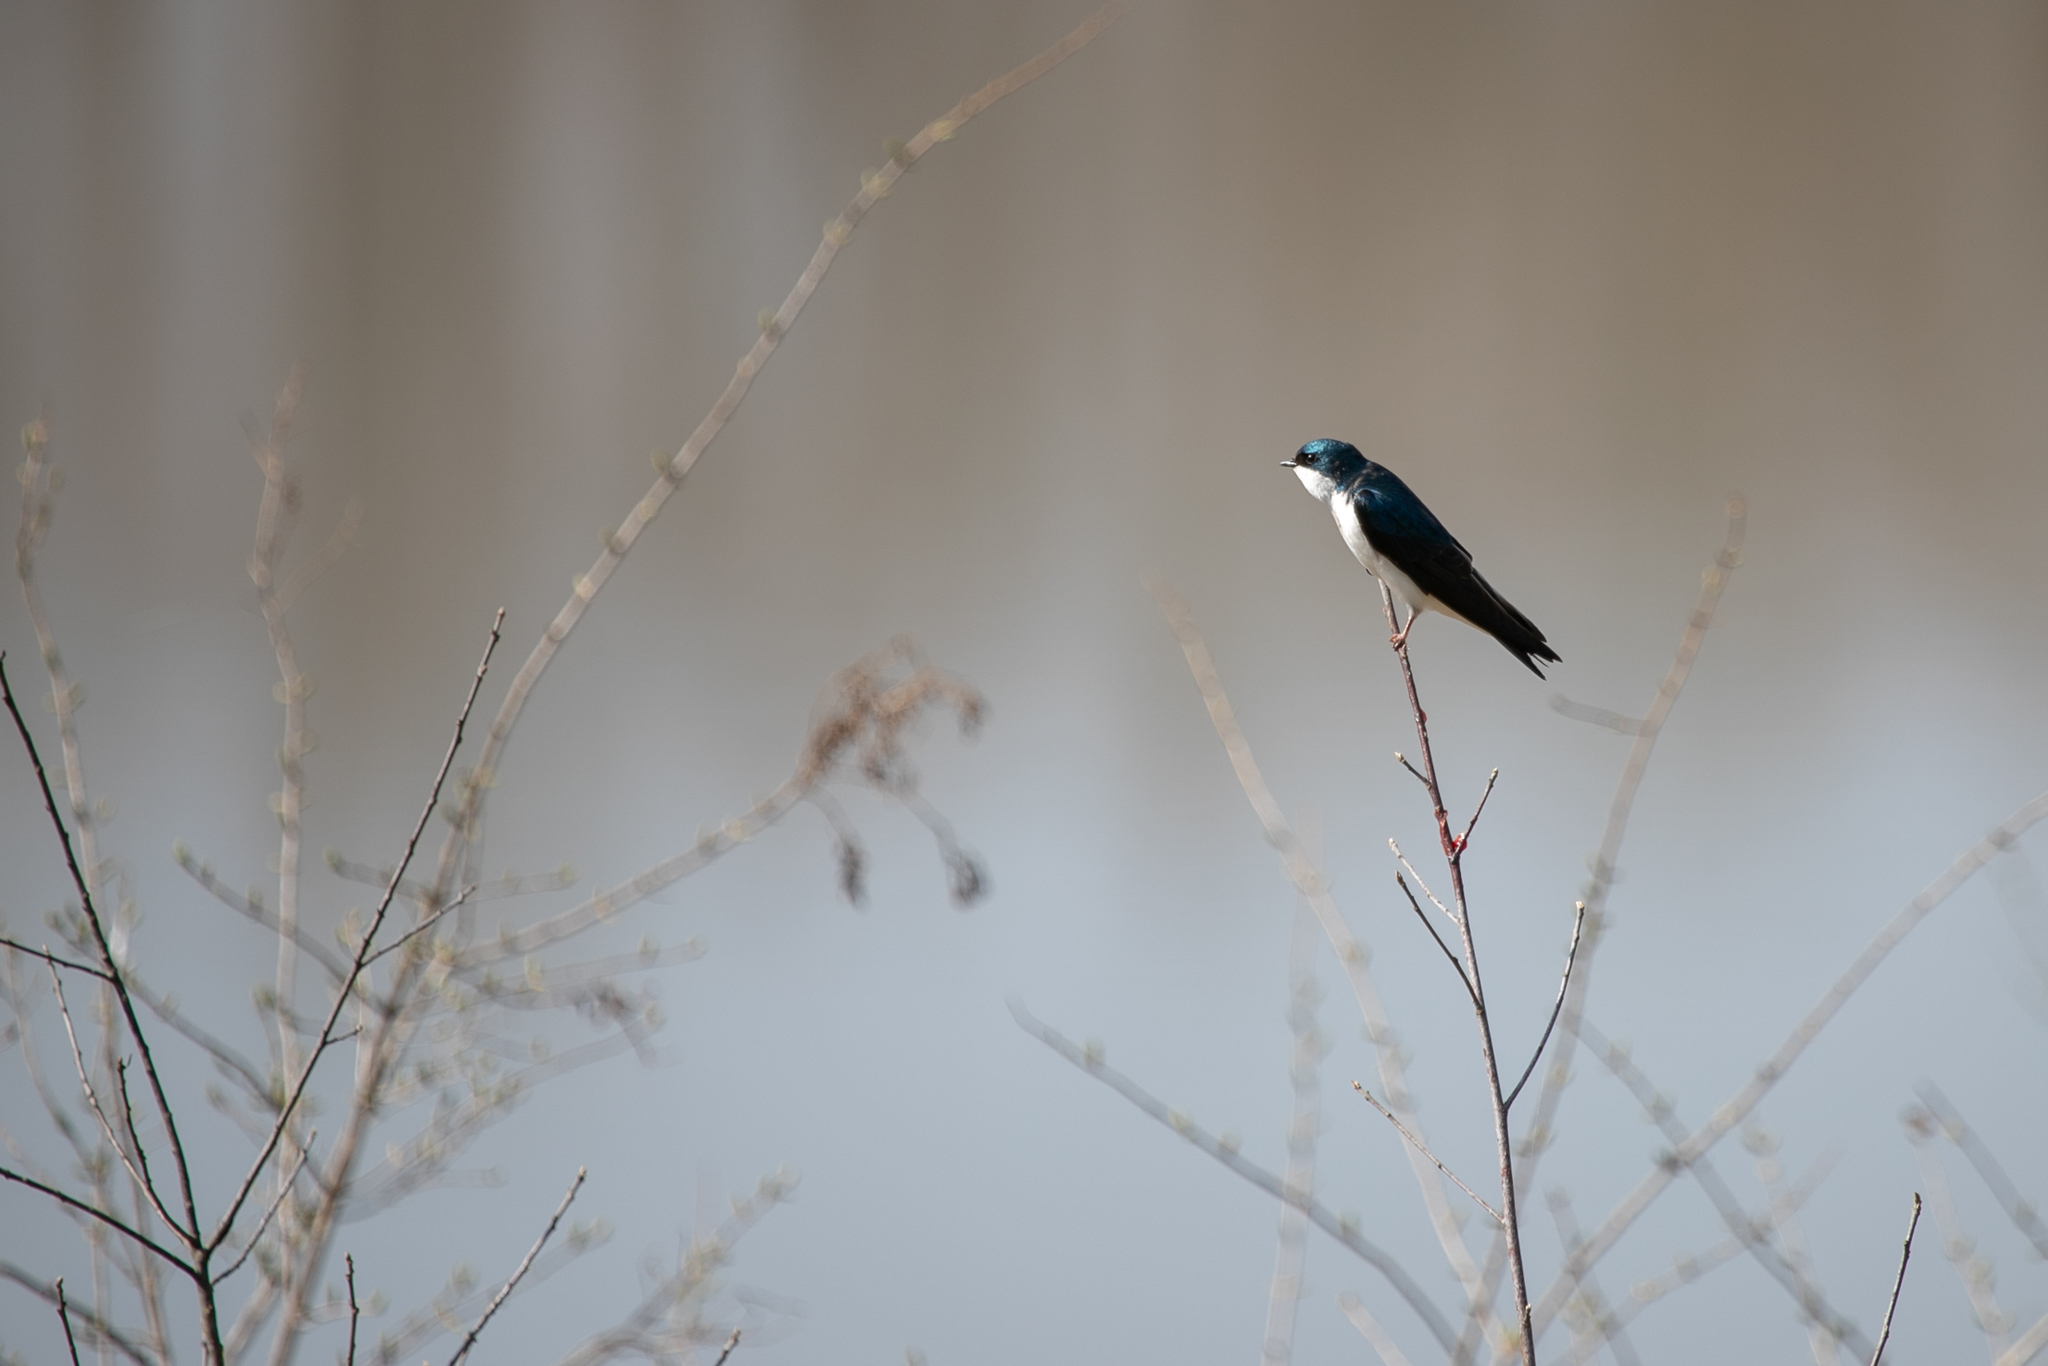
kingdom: Animalia
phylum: Chordata
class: Aves
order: Passeriformes
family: Hirundinidae
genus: Tachycineta
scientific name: Tachycineta bicolor
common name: Tree swallow
